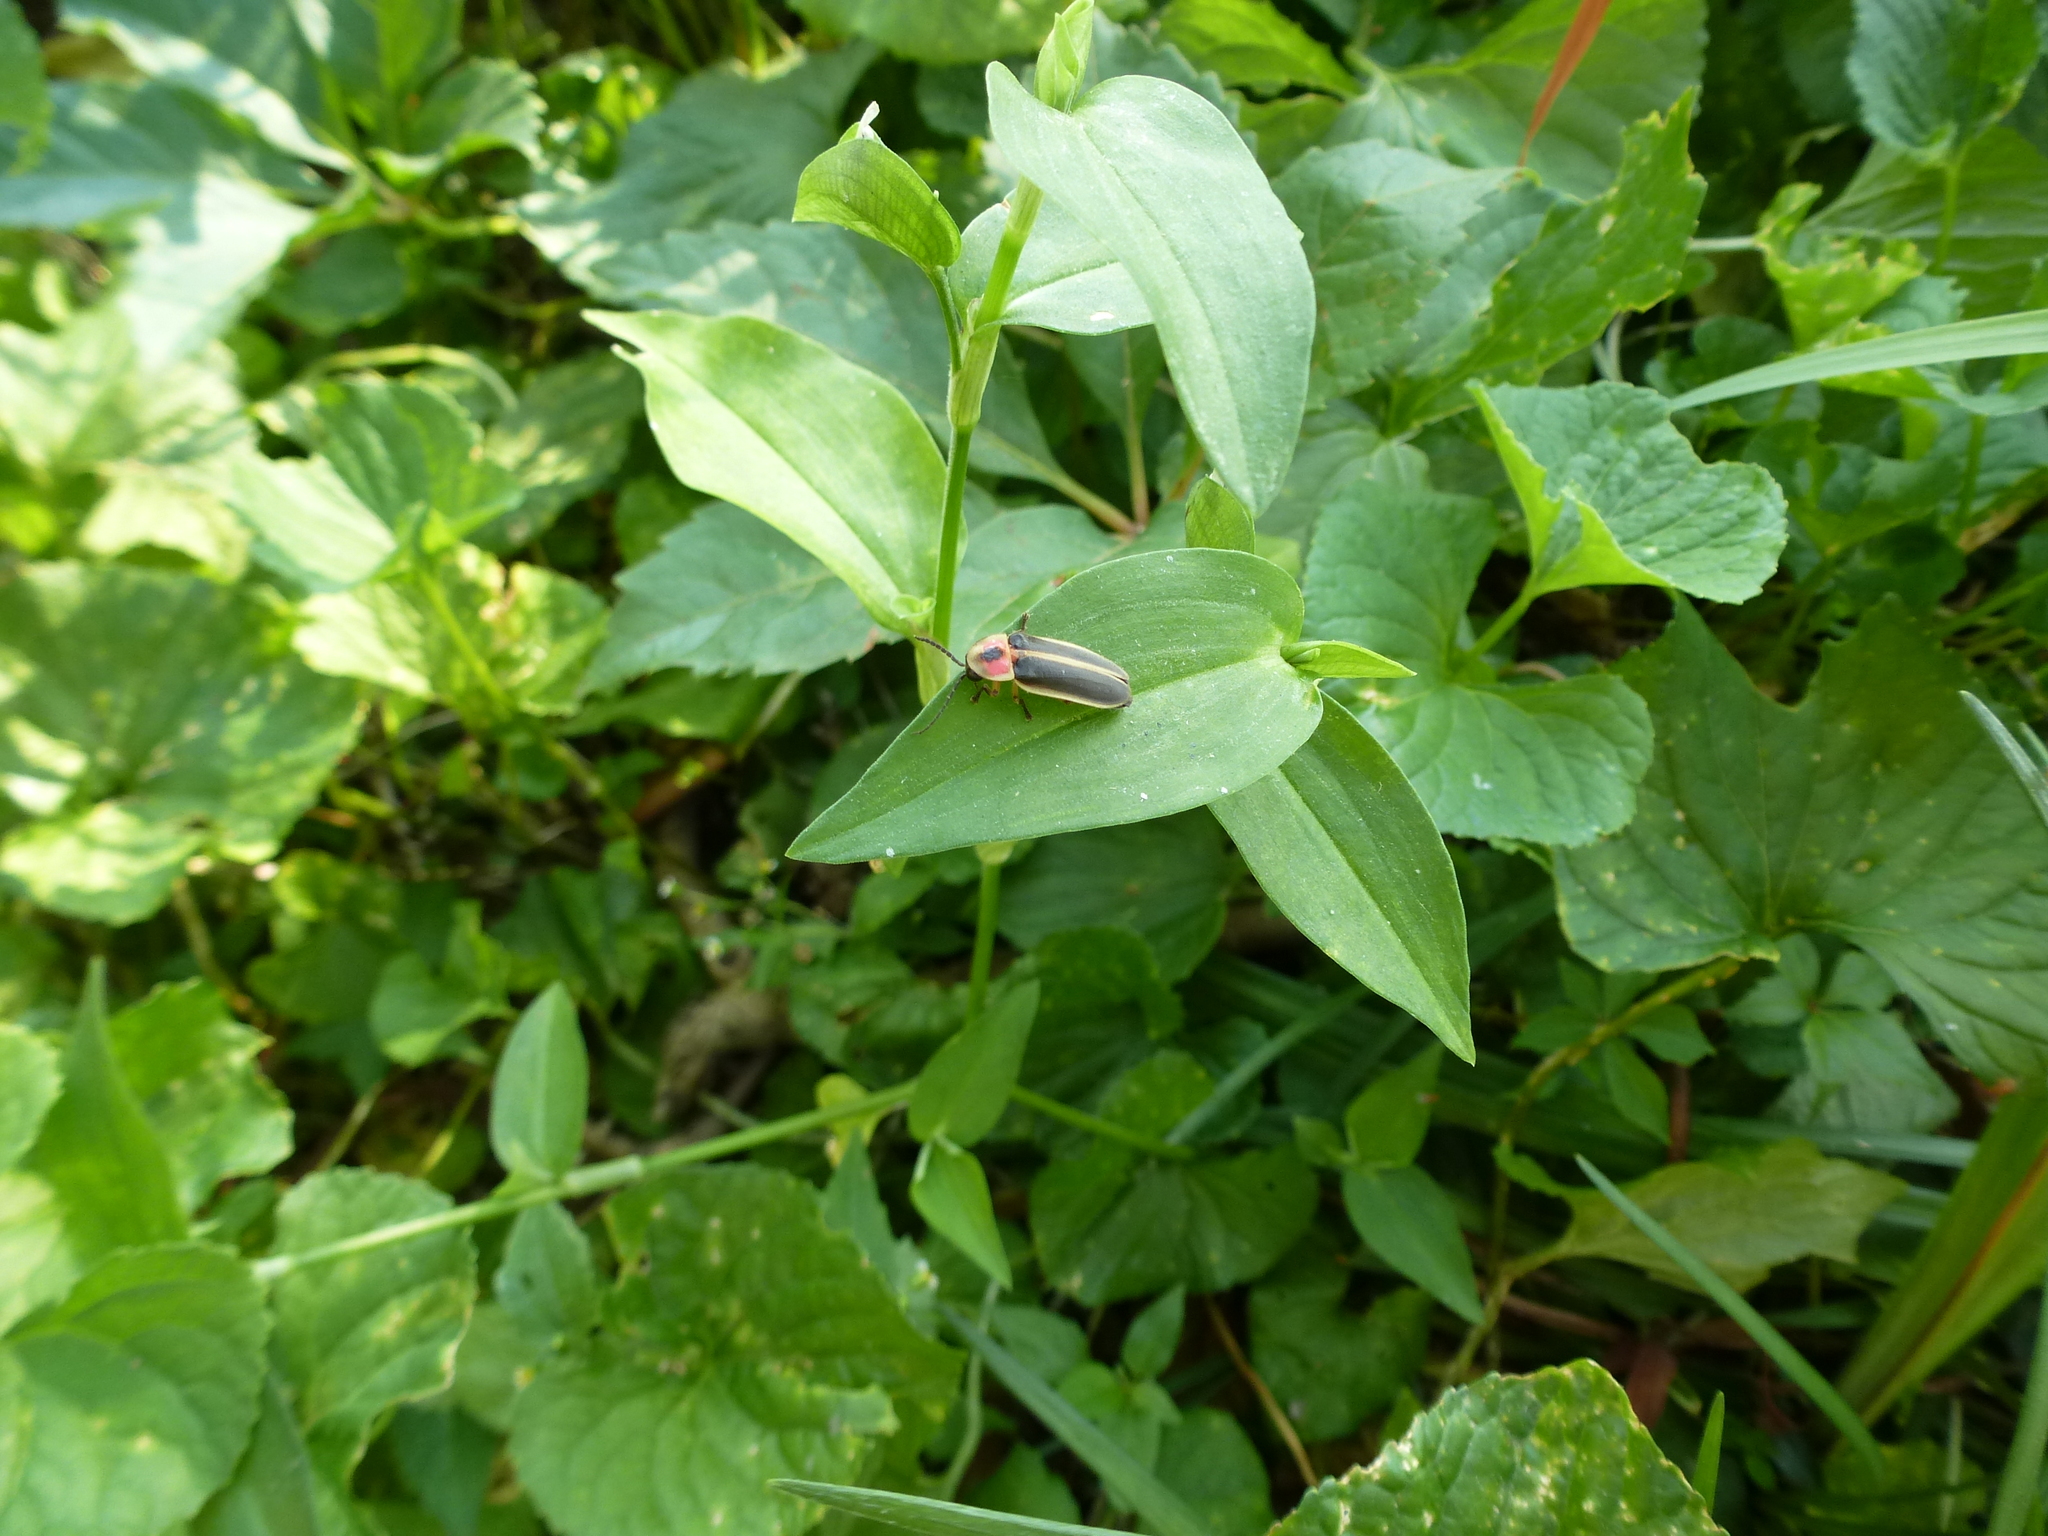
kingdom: Animalia
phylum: Arthropoda
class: Insecta
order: Coleoptera
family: Lampyridae
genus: Photinus
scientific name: Photinus pyralis
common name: Big dipper firefly
